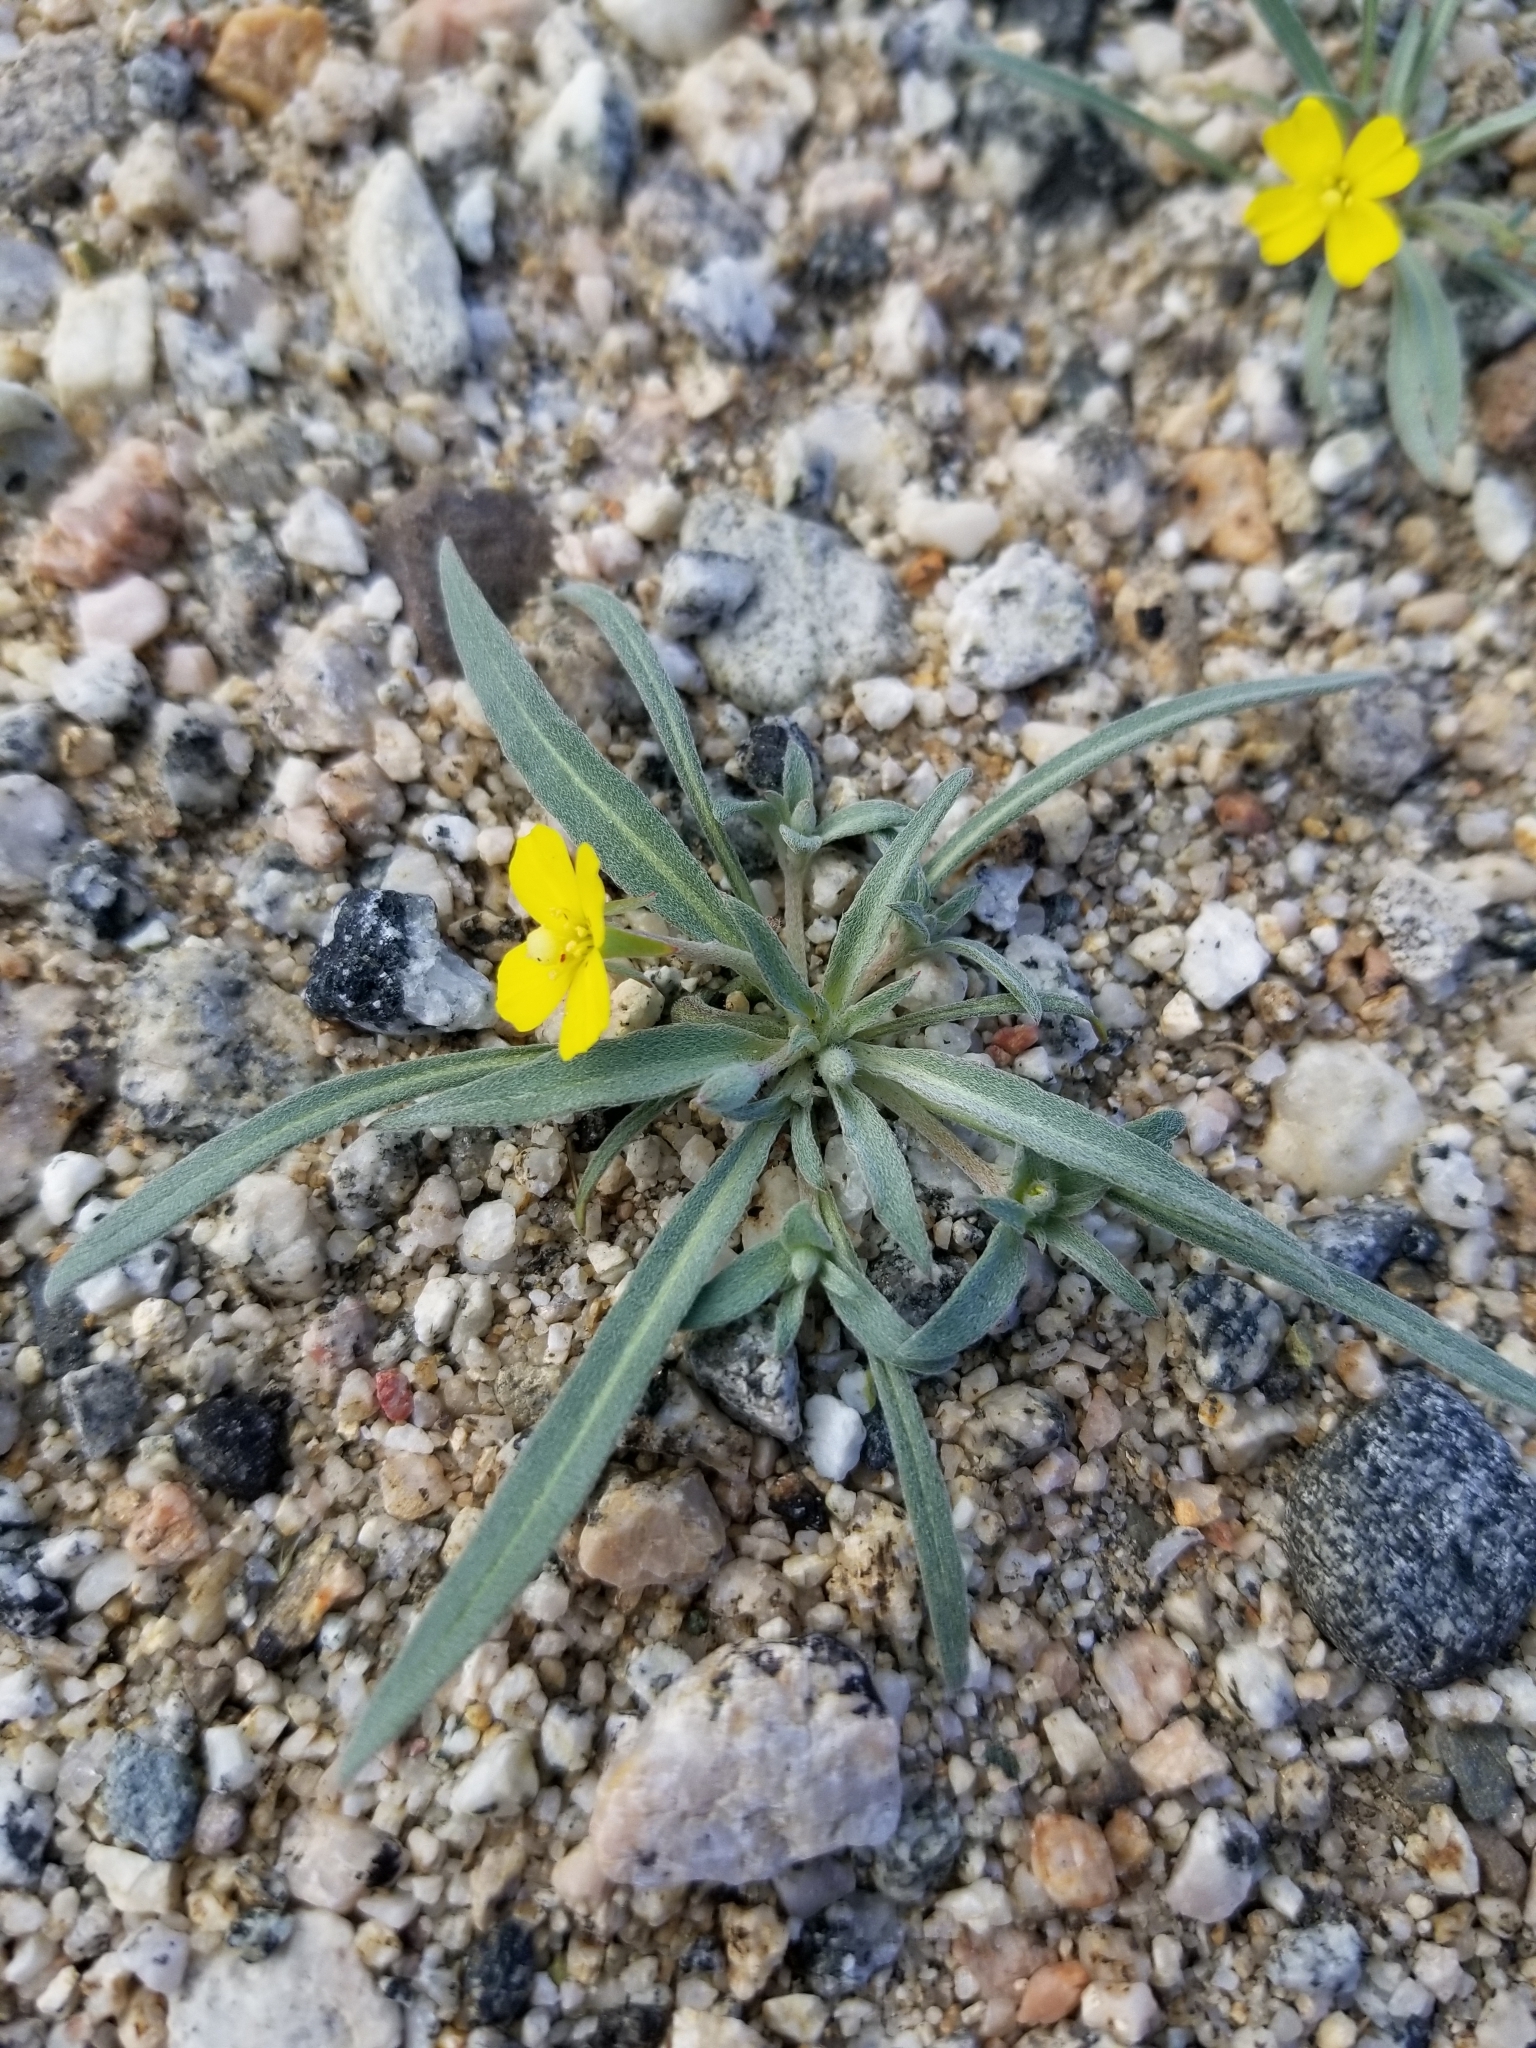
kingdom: Plantae
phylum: Tracheophyta
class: Magnoliopsida
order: Myrtales
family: Onagraceae
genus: Camissoniopsis
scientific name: Camissoniopsis pallida
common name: Paleyellow suncup
